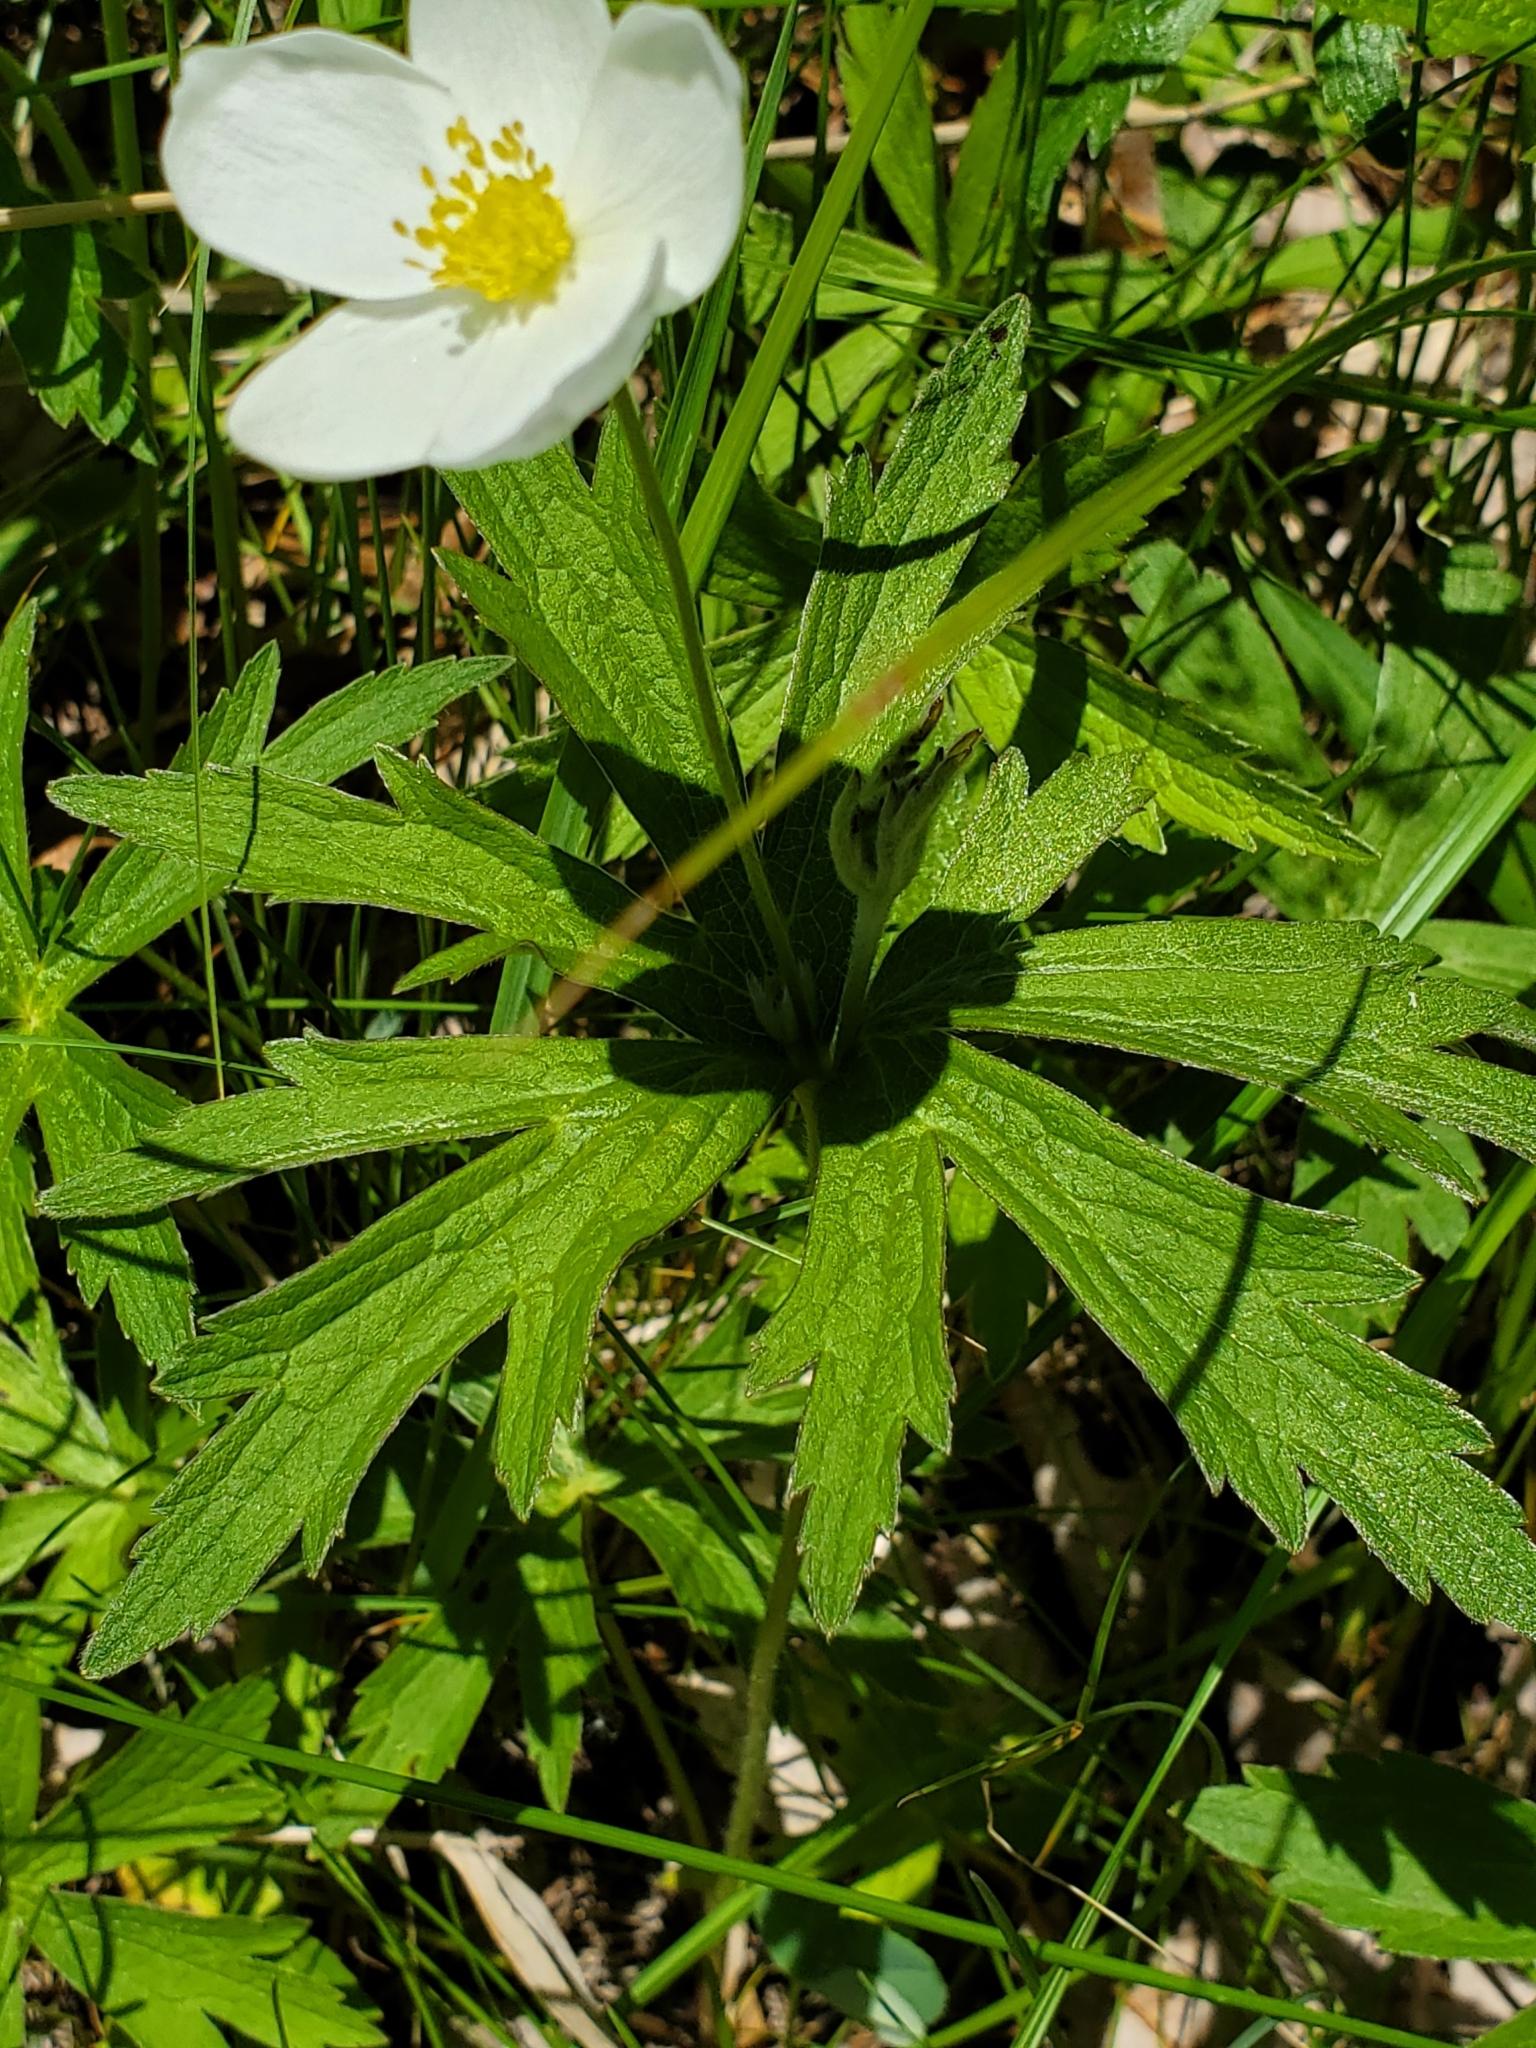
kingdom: Plantae
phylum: Tracheophyta
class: Magnoliopsida
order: Ranunculales
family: Ranunculaceae
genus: Anemonastrum
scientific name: Anemonastrum canadense
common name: Canada anemone
